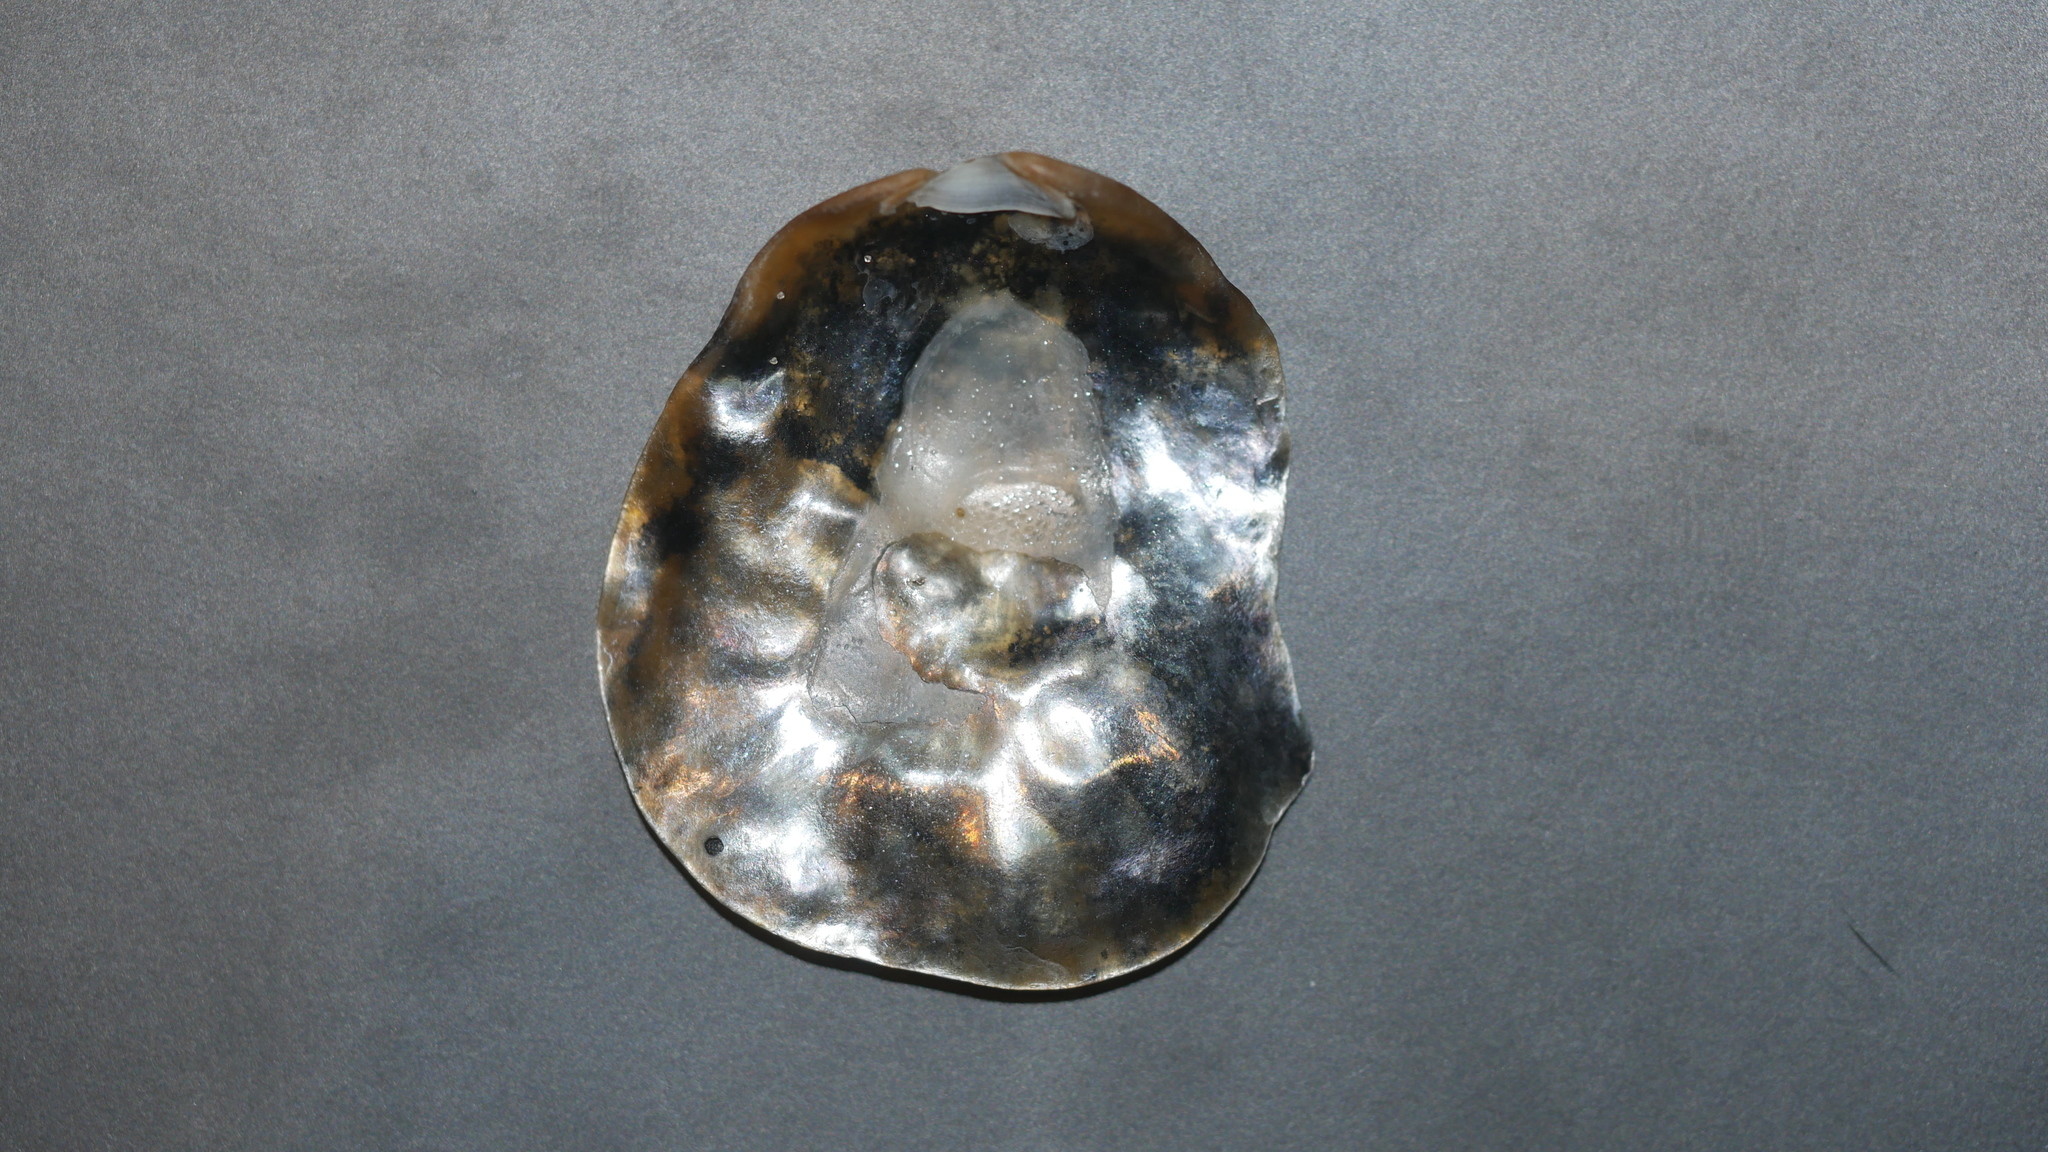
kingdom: Animalia
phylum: Mollusca
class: Bivalvia
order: Pectinida
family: Anomiidae
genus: Anomia
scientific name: Anomia simplex
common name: Common jingle shell
